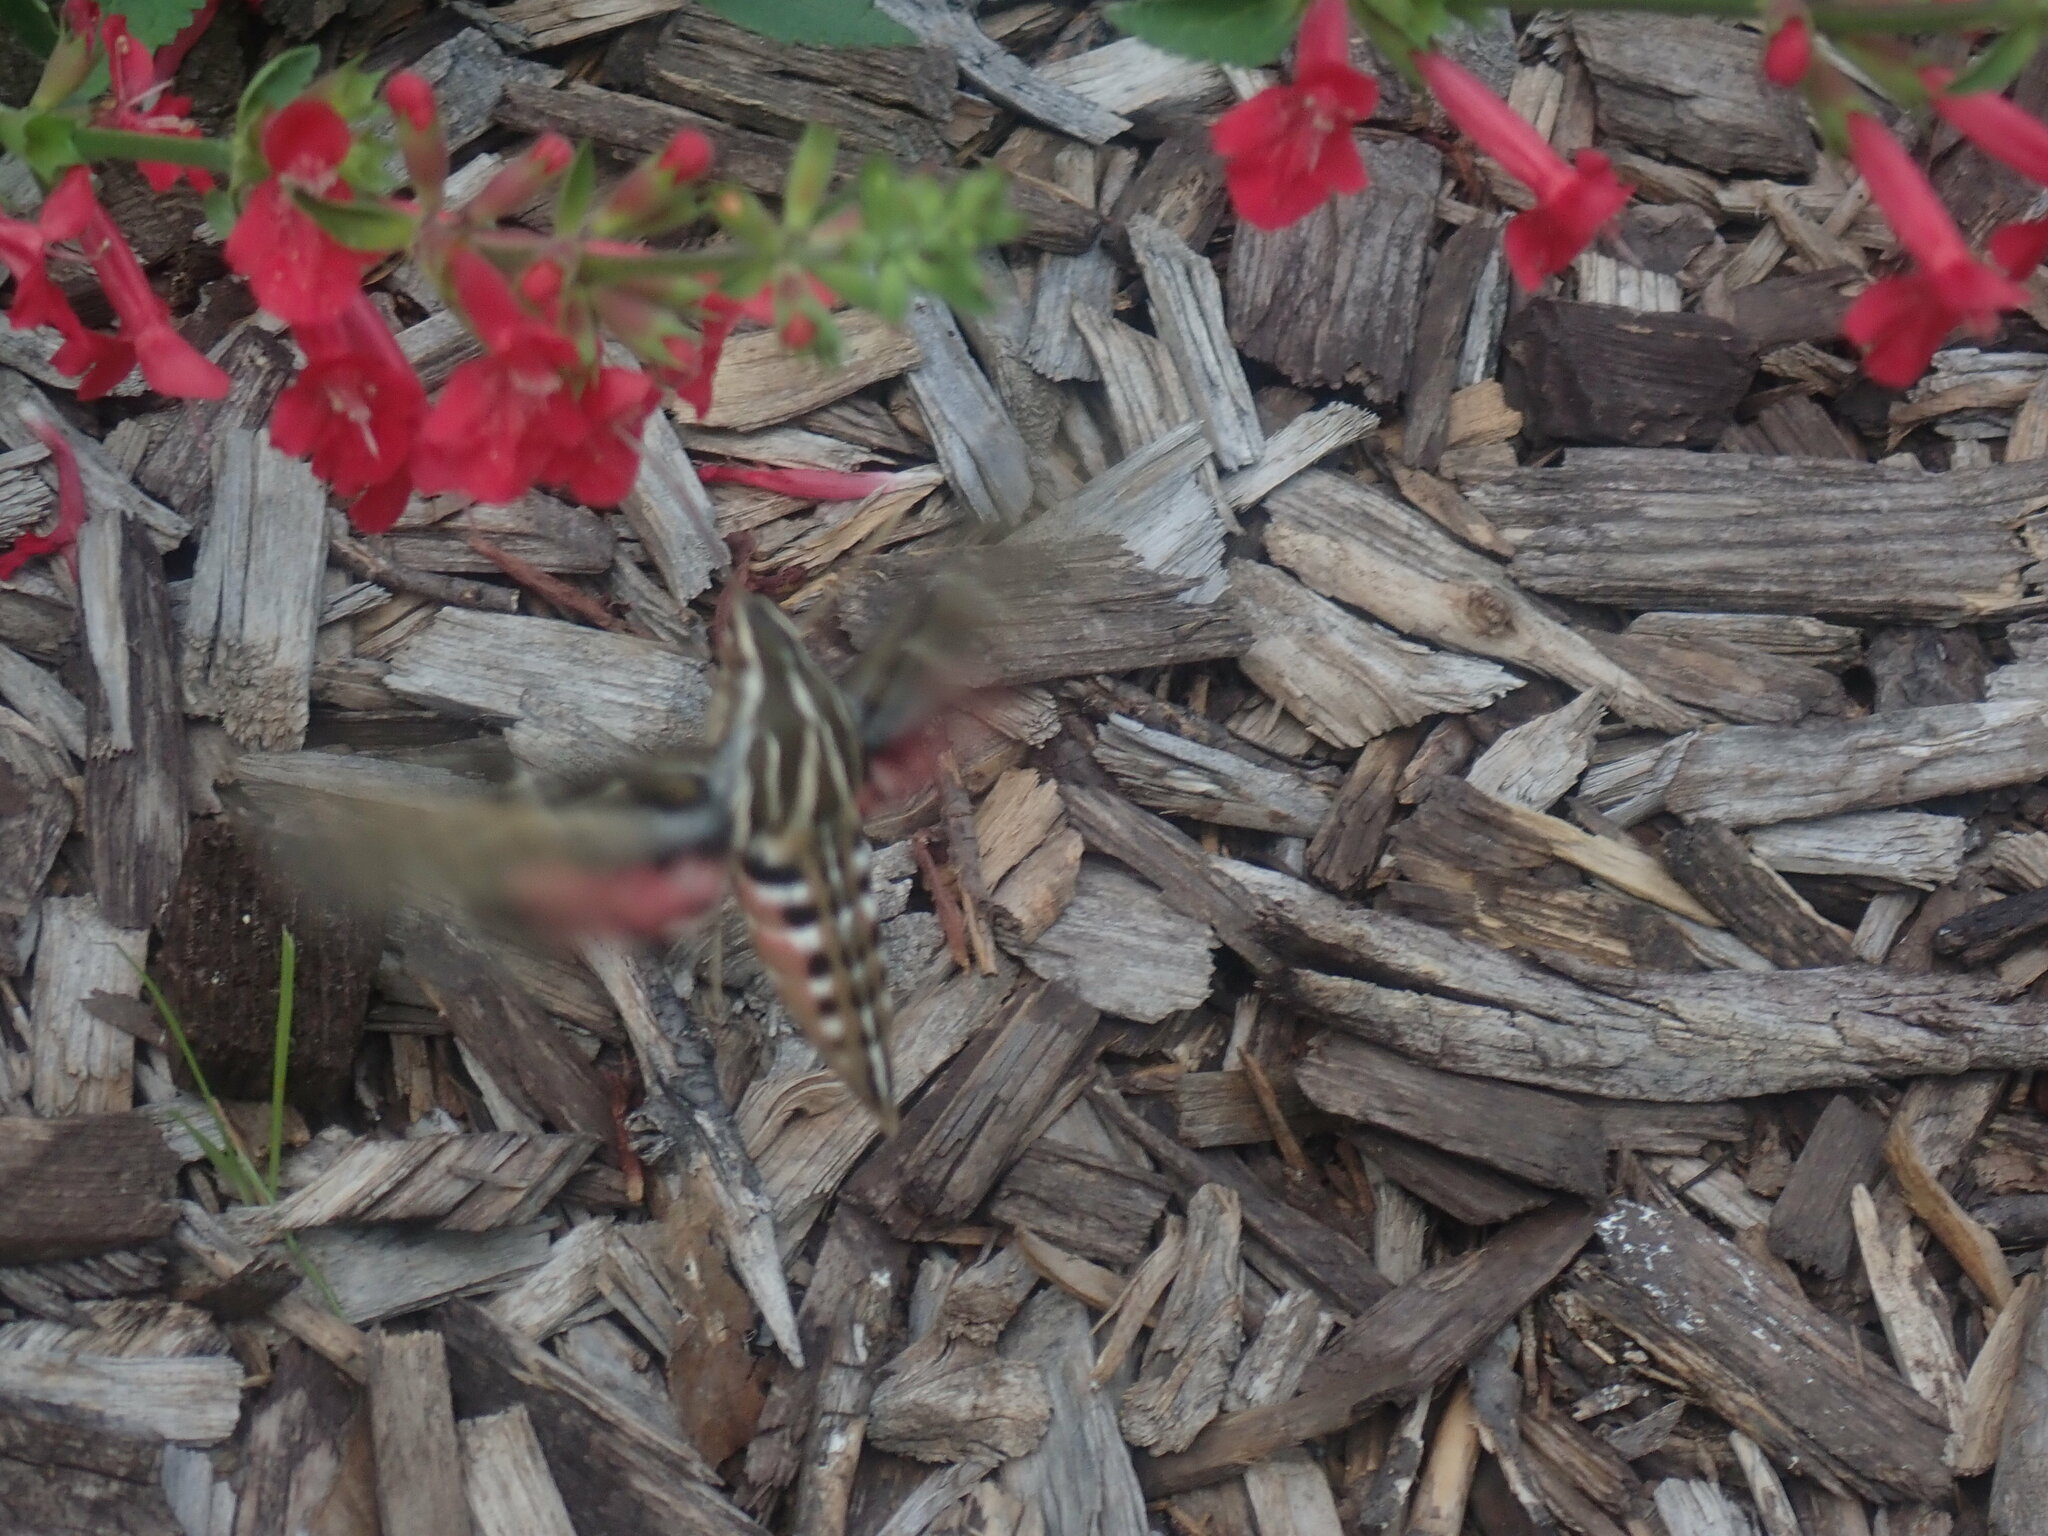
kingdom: Animalia
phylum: Arthropoda
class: Insecta
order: Lepidoptera
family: Sphingidae
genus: Hyles
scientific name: Hyles lineata
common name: White-lined sphinx
